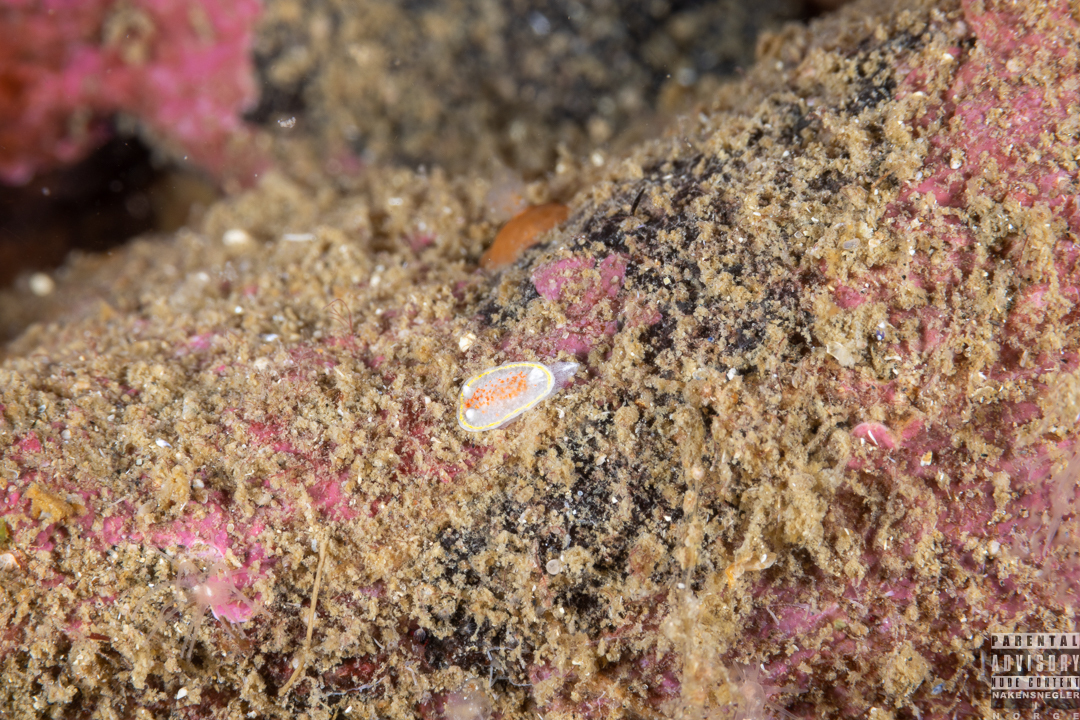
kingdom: Animalia
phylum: Mollusca
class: Gastropoda
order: Nudibranchia
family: Calycidorididae
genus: Diaphorodoris
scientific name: Diaphorodoris luteocincta
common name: Fried egg nudibranch
